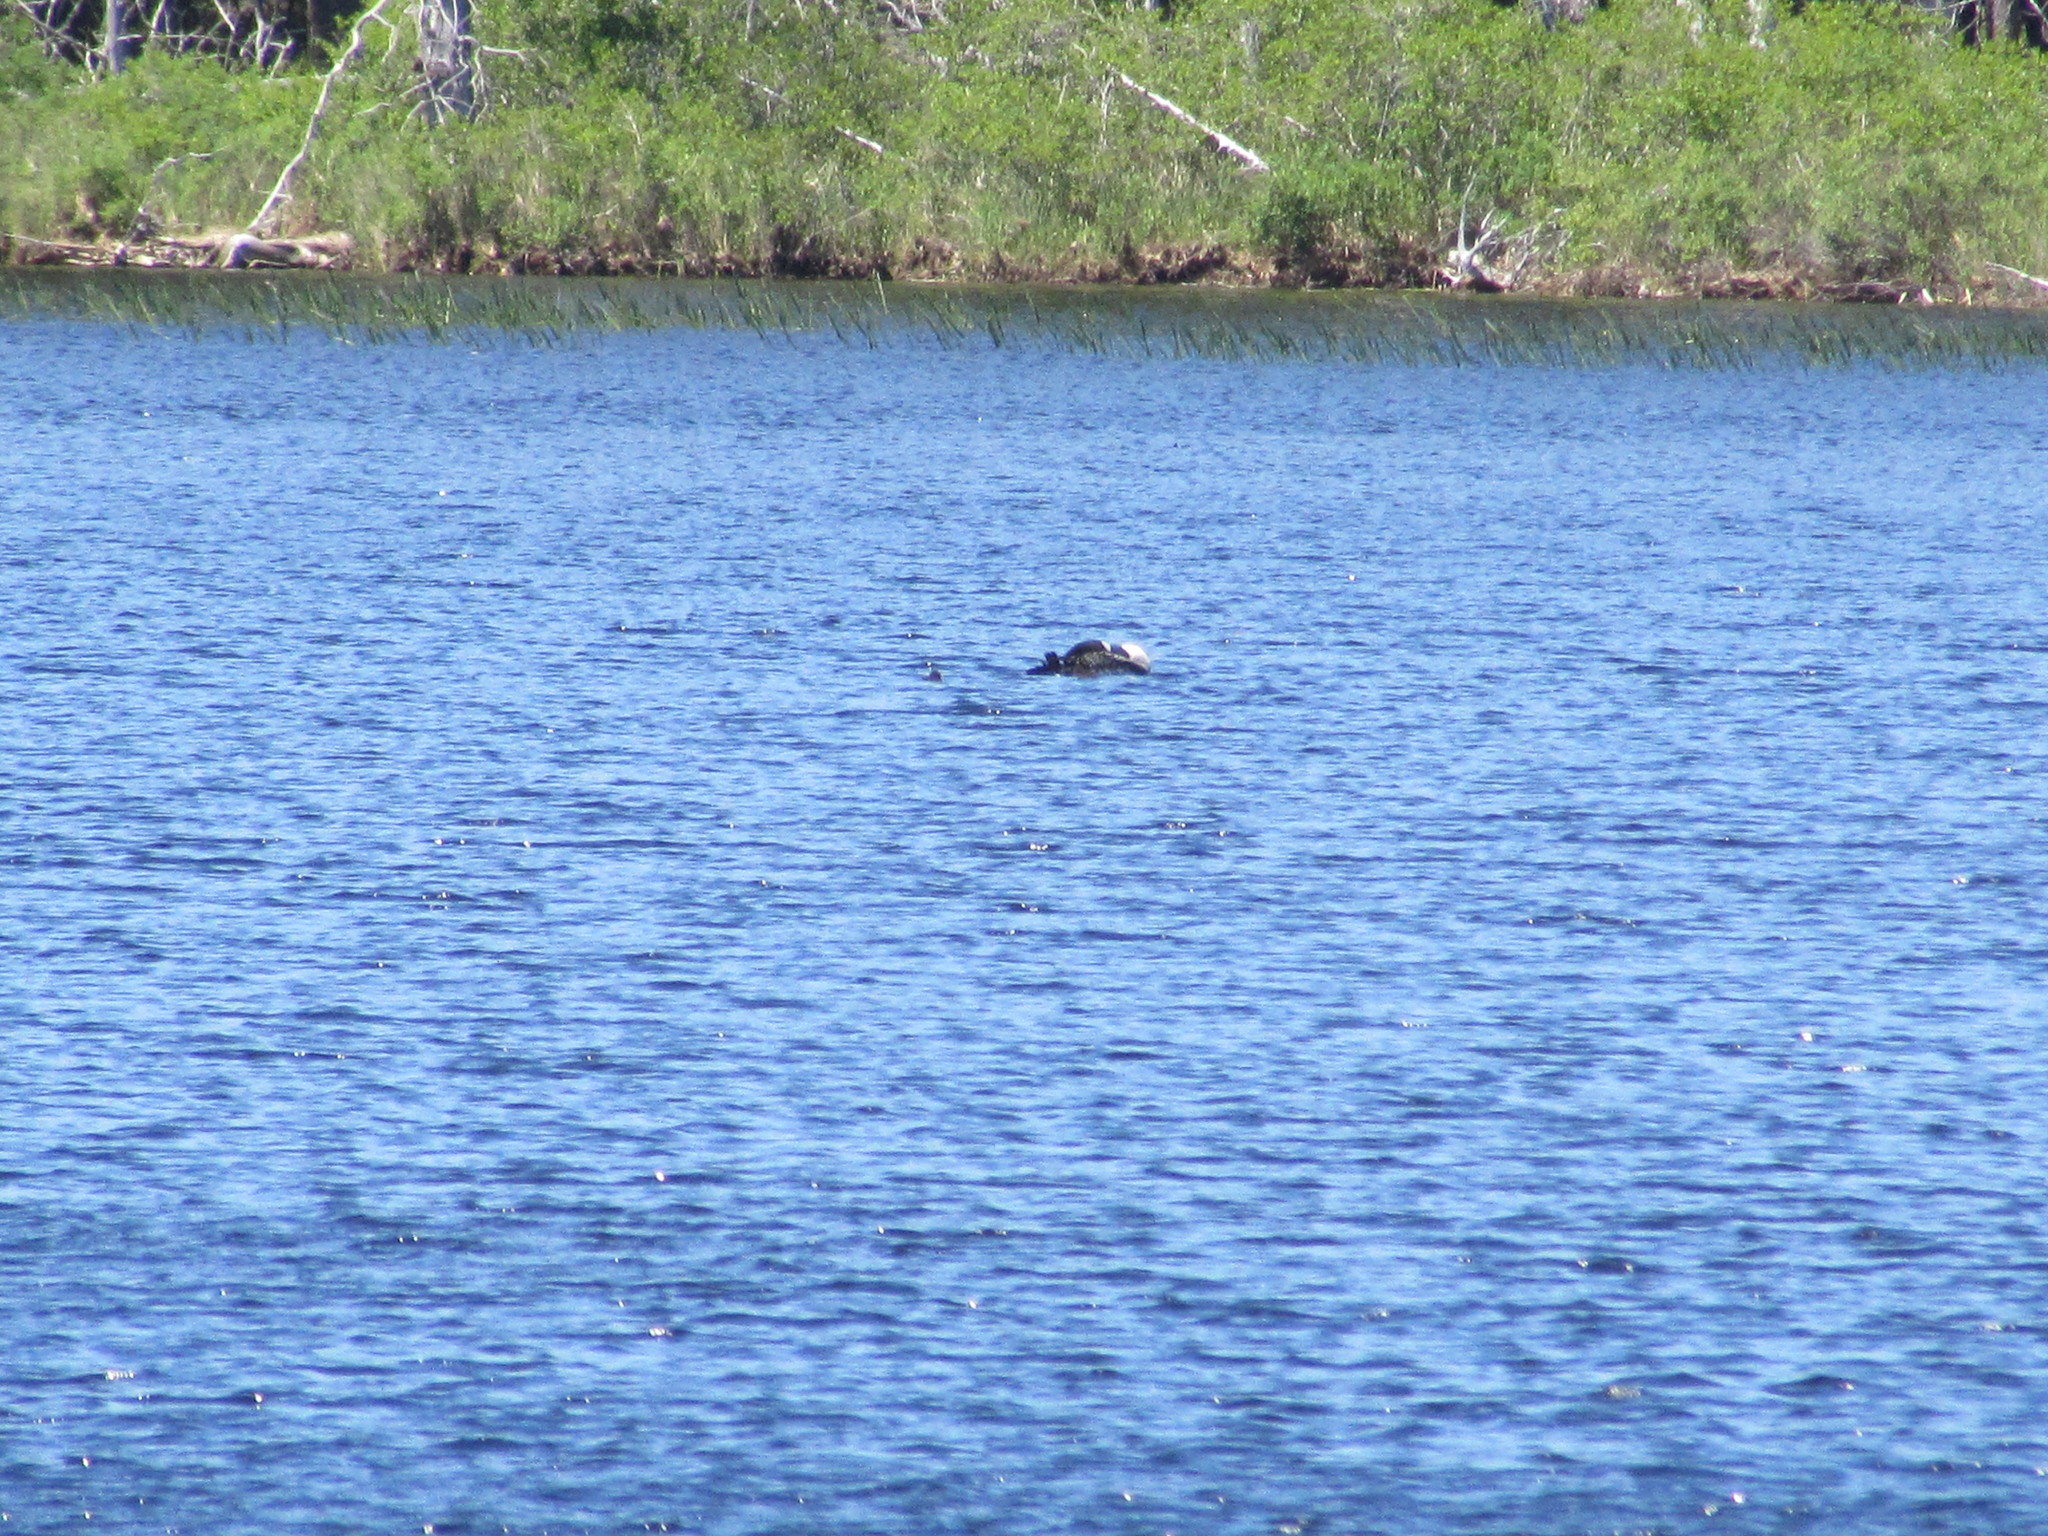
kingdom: Animalia
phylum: Chordata
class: Aves
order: Gaviiformes
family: Gaviidae
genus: Gavia
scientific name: Gavia immer
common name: Common loon
